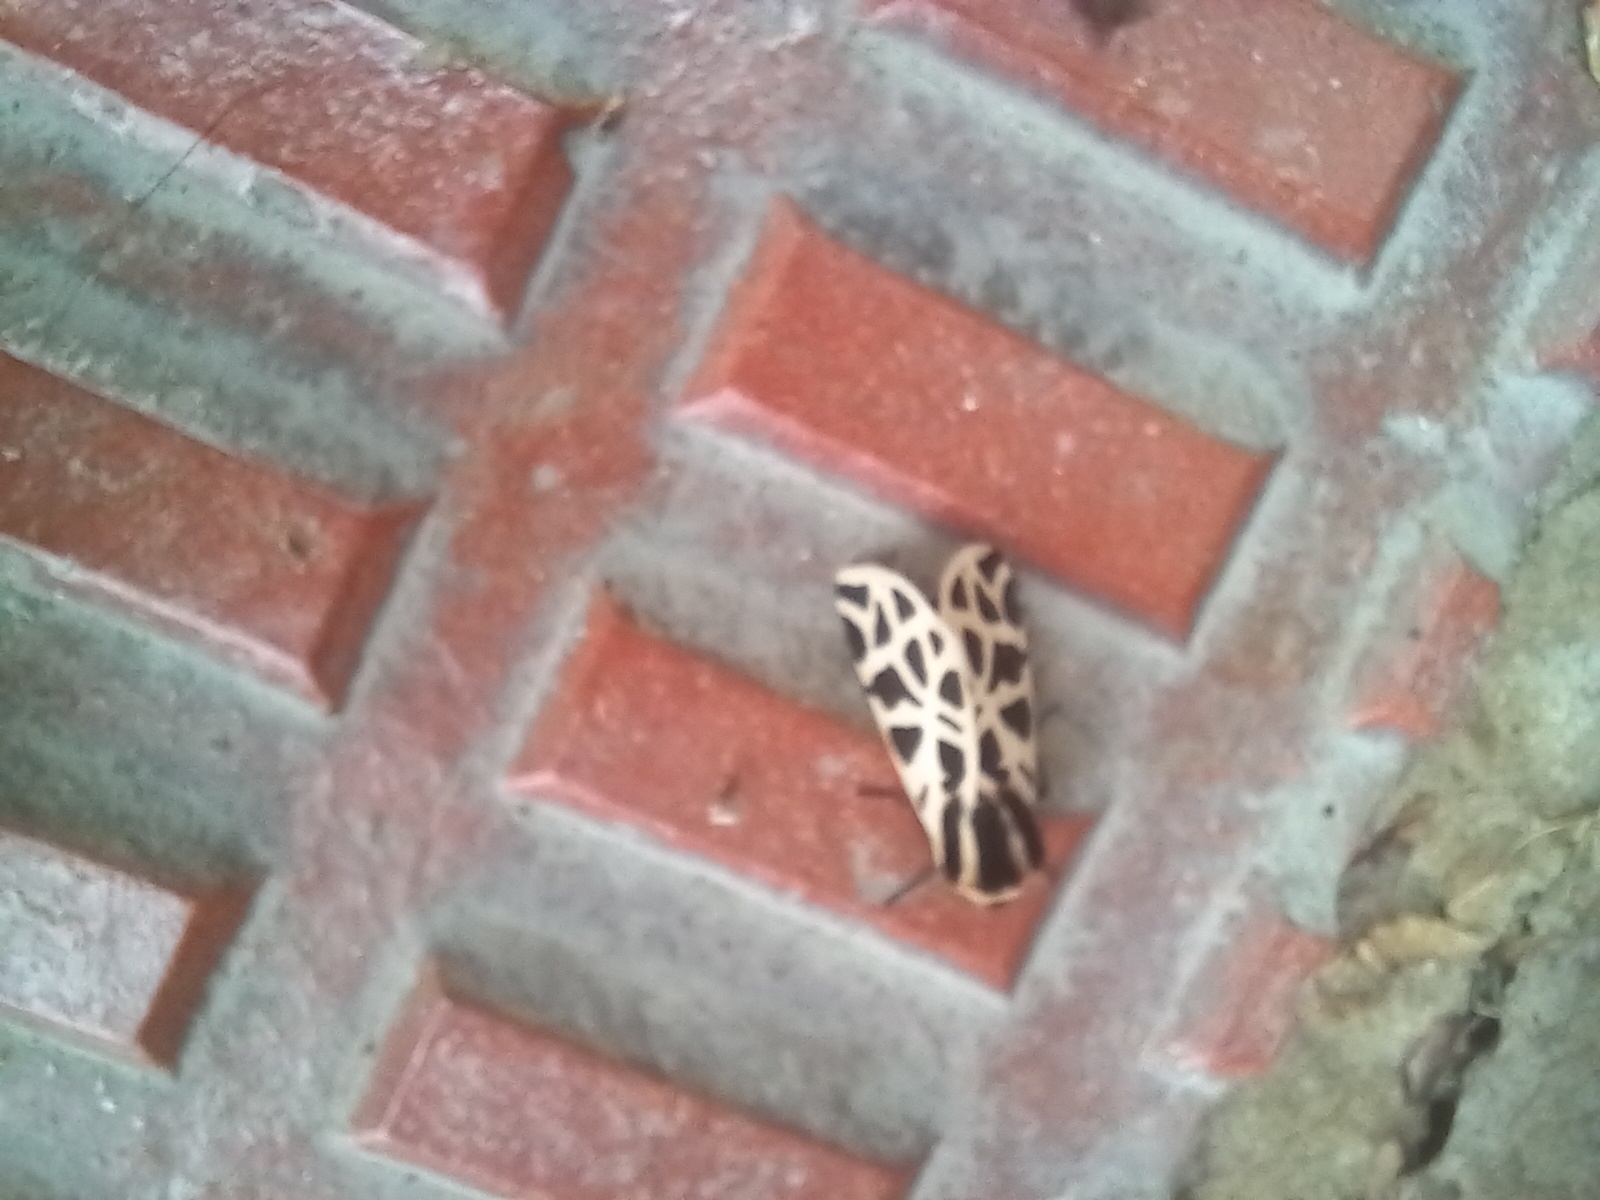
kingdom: Animalia
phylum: Arthropoda
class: Insecta
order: Lepidoptera
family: Erebidae
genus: Cymbalophora
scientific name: Cymbalophora pudica
